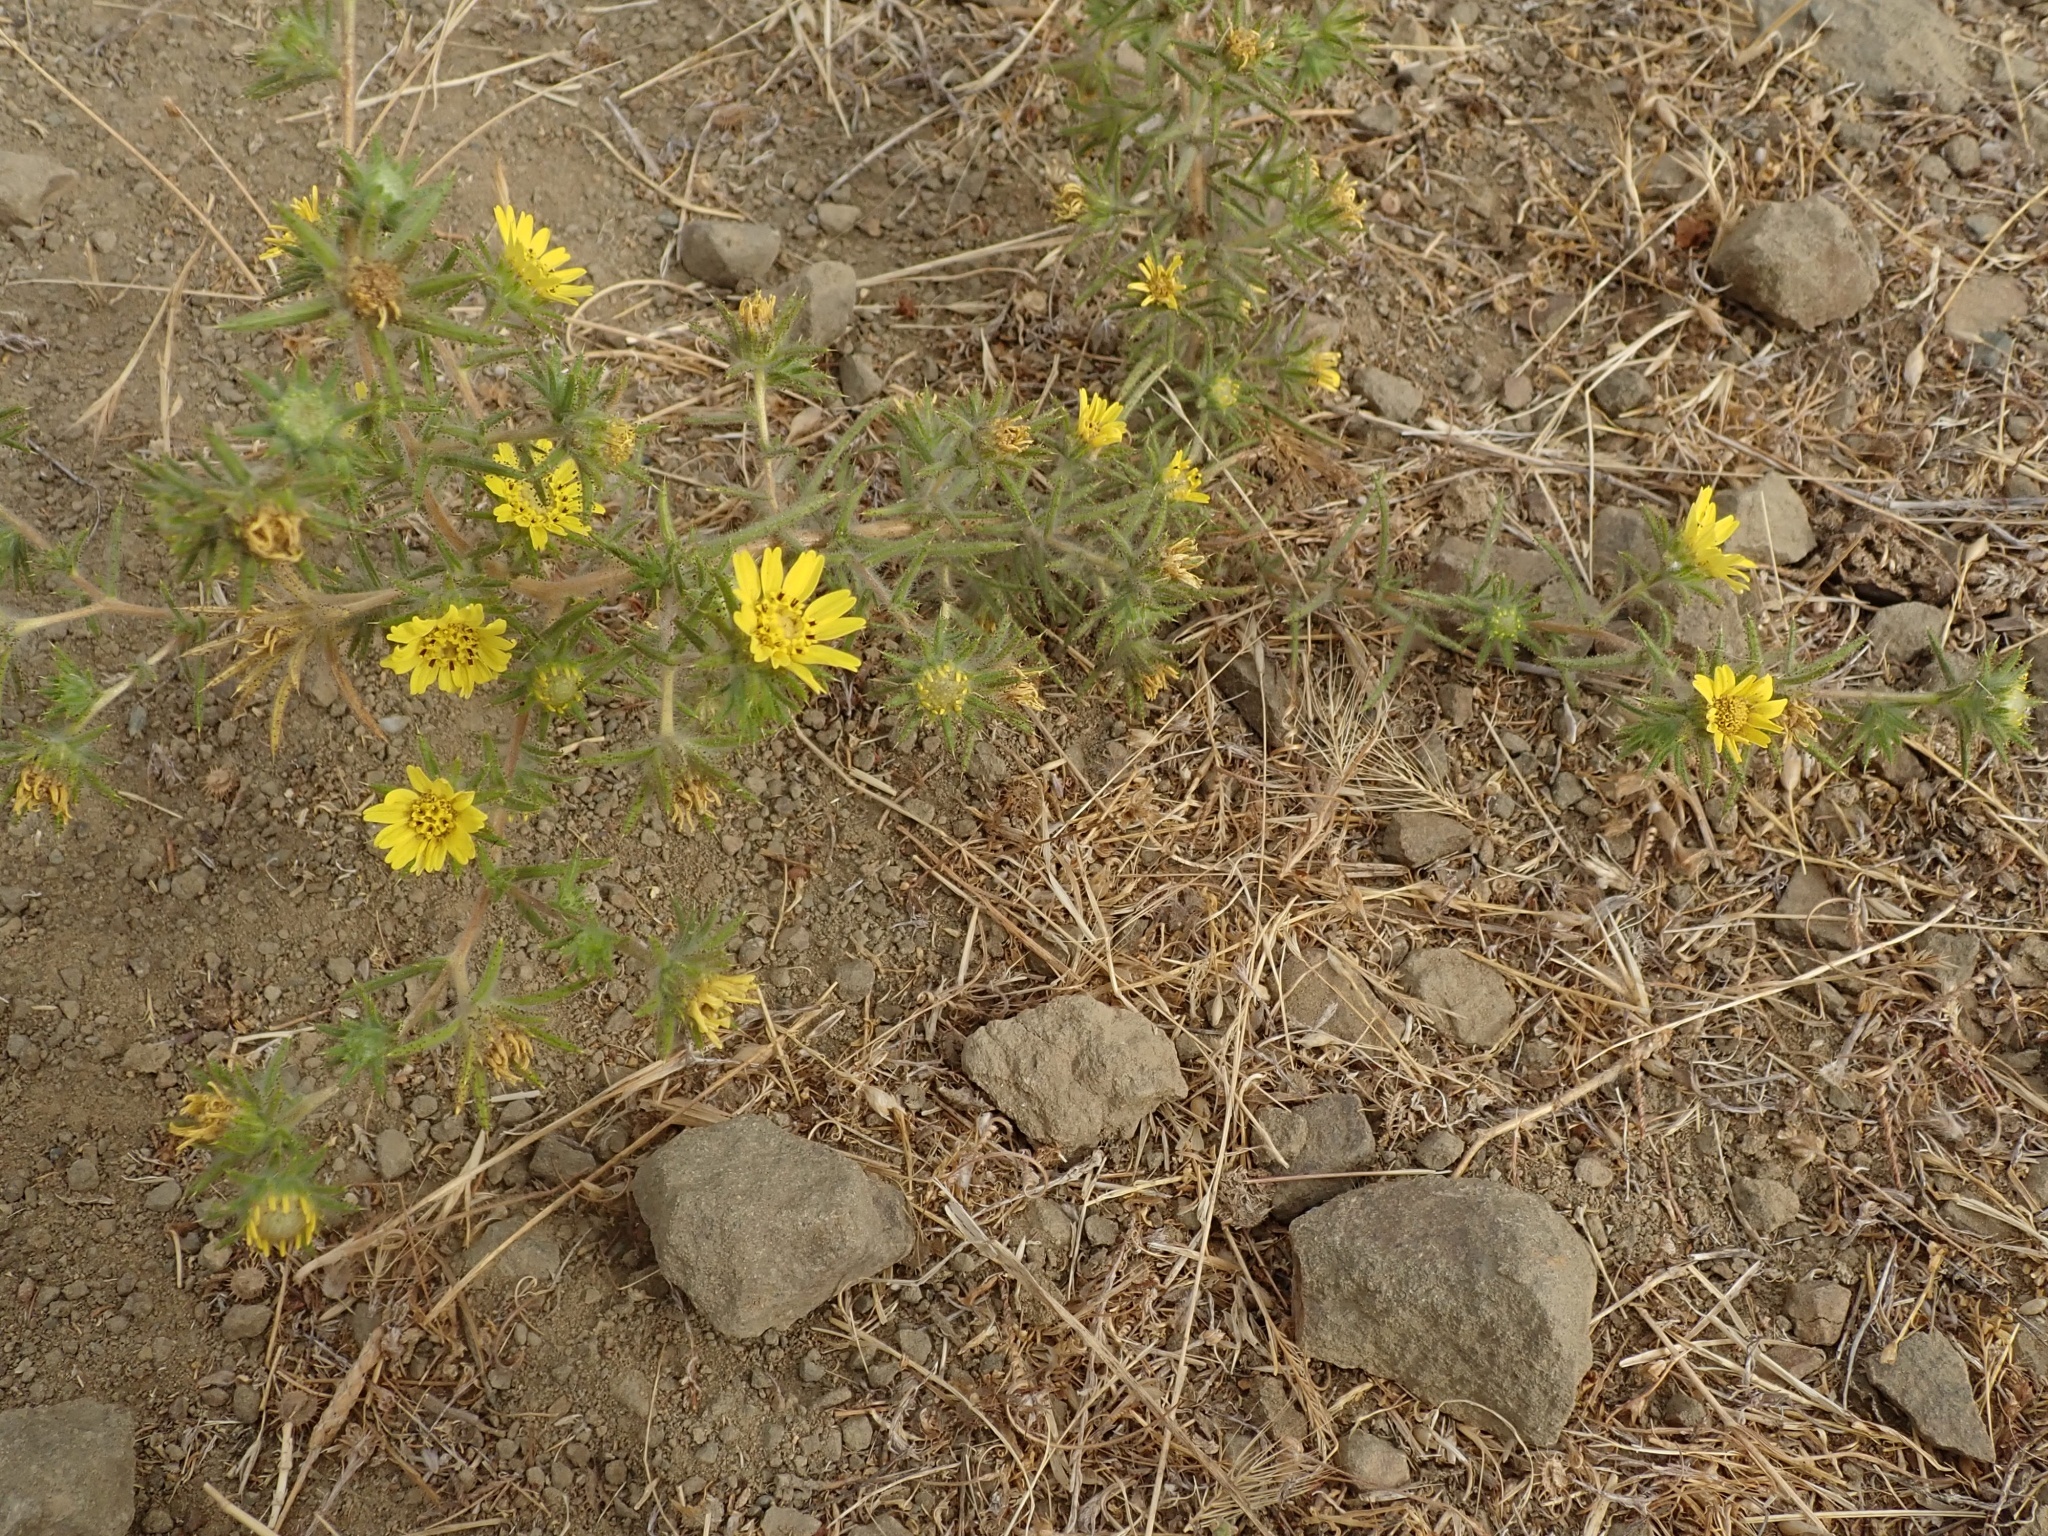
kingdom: Plantae
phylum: Tracheophyta
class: Magnoliopsida
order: Asterales
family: Asteraceae
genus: Centromadia
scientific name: Centromadia fitchii
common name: Fitch's spikeweed
